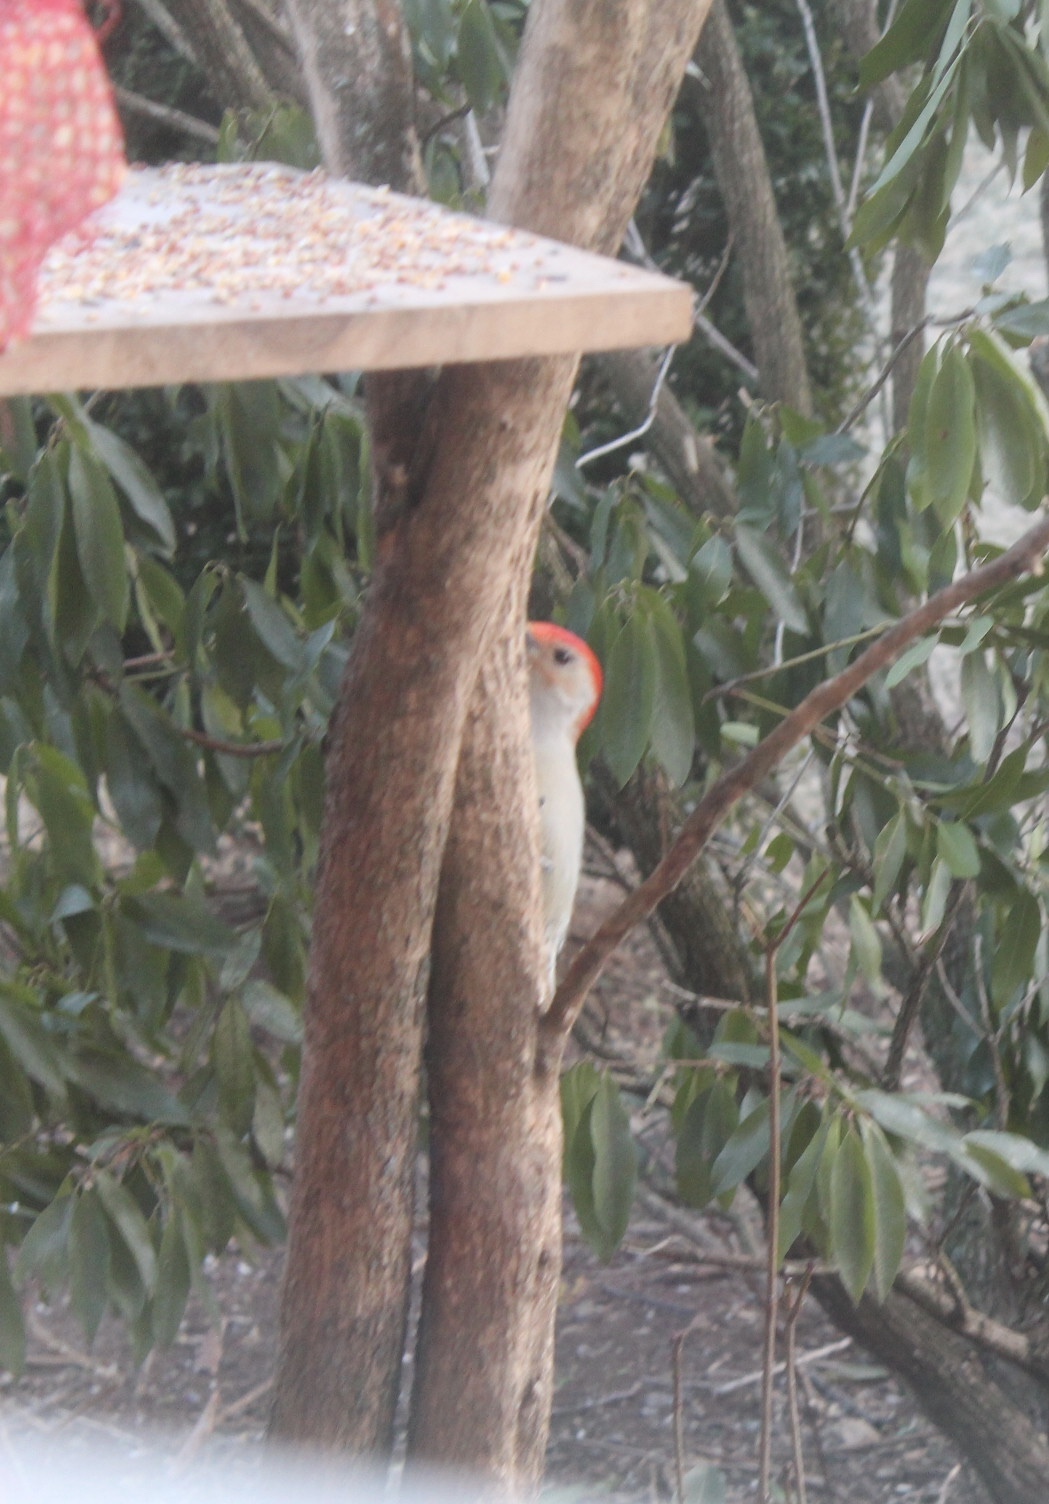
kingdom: Animalia
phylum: Chordata
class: Aves
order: Piciformes
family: Picidae
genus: Melanerpes
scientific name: Melanerpes carolinus
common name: Red-bellied woodpecker
